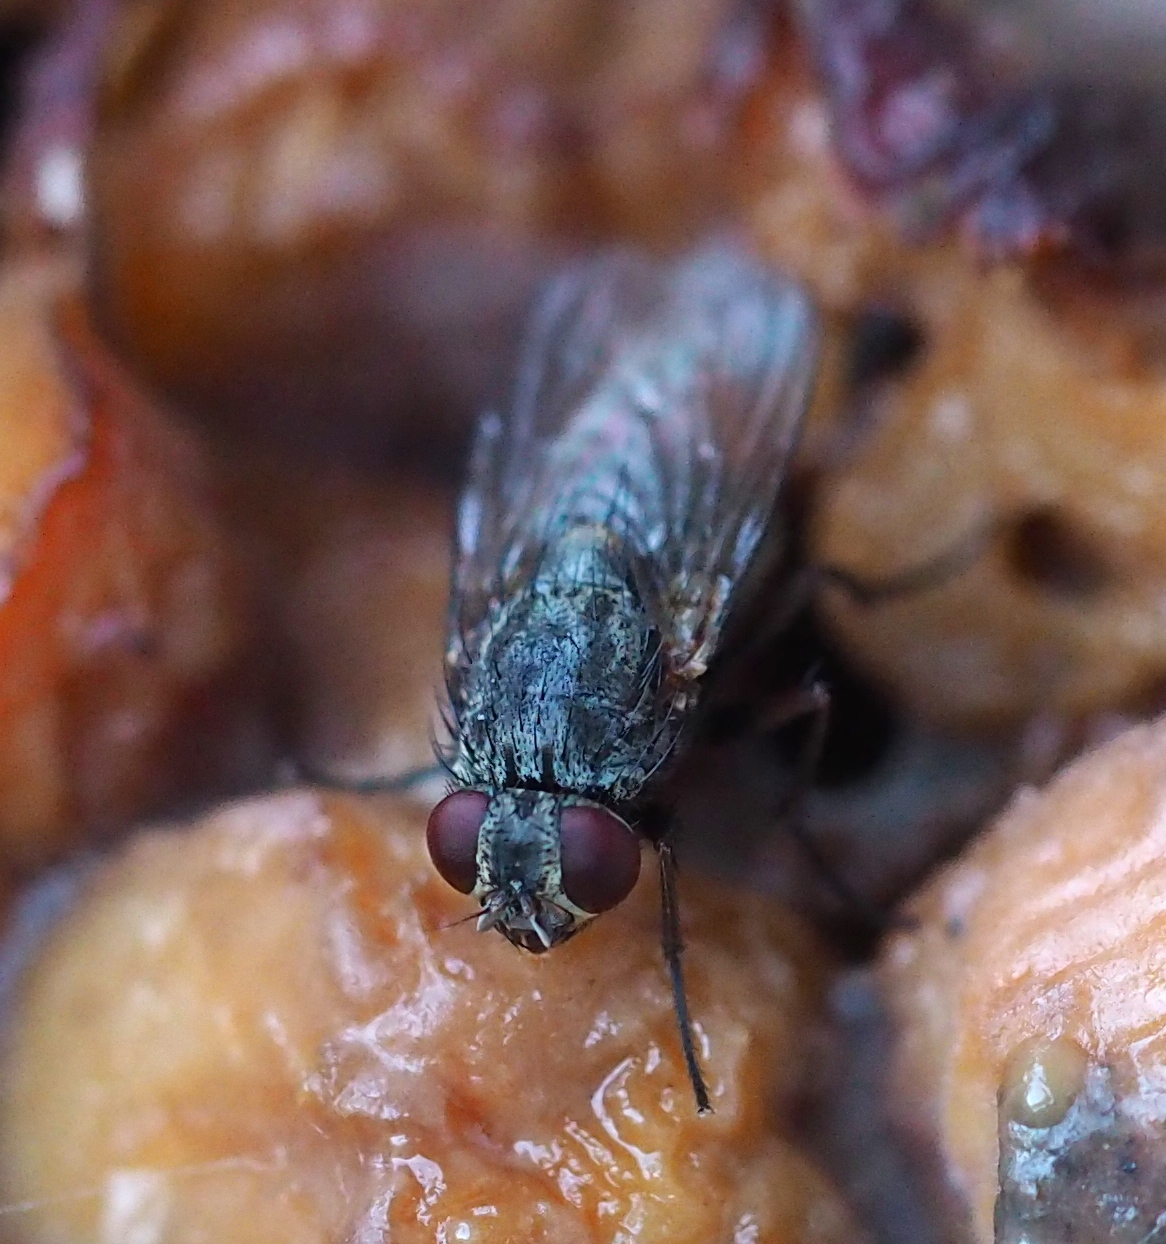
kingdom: Animalia
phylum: Arthropoda
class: Insecta
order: Diptera
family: Muscidae
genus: Muscina
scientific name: Muscina stabulans
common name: False stable fly
